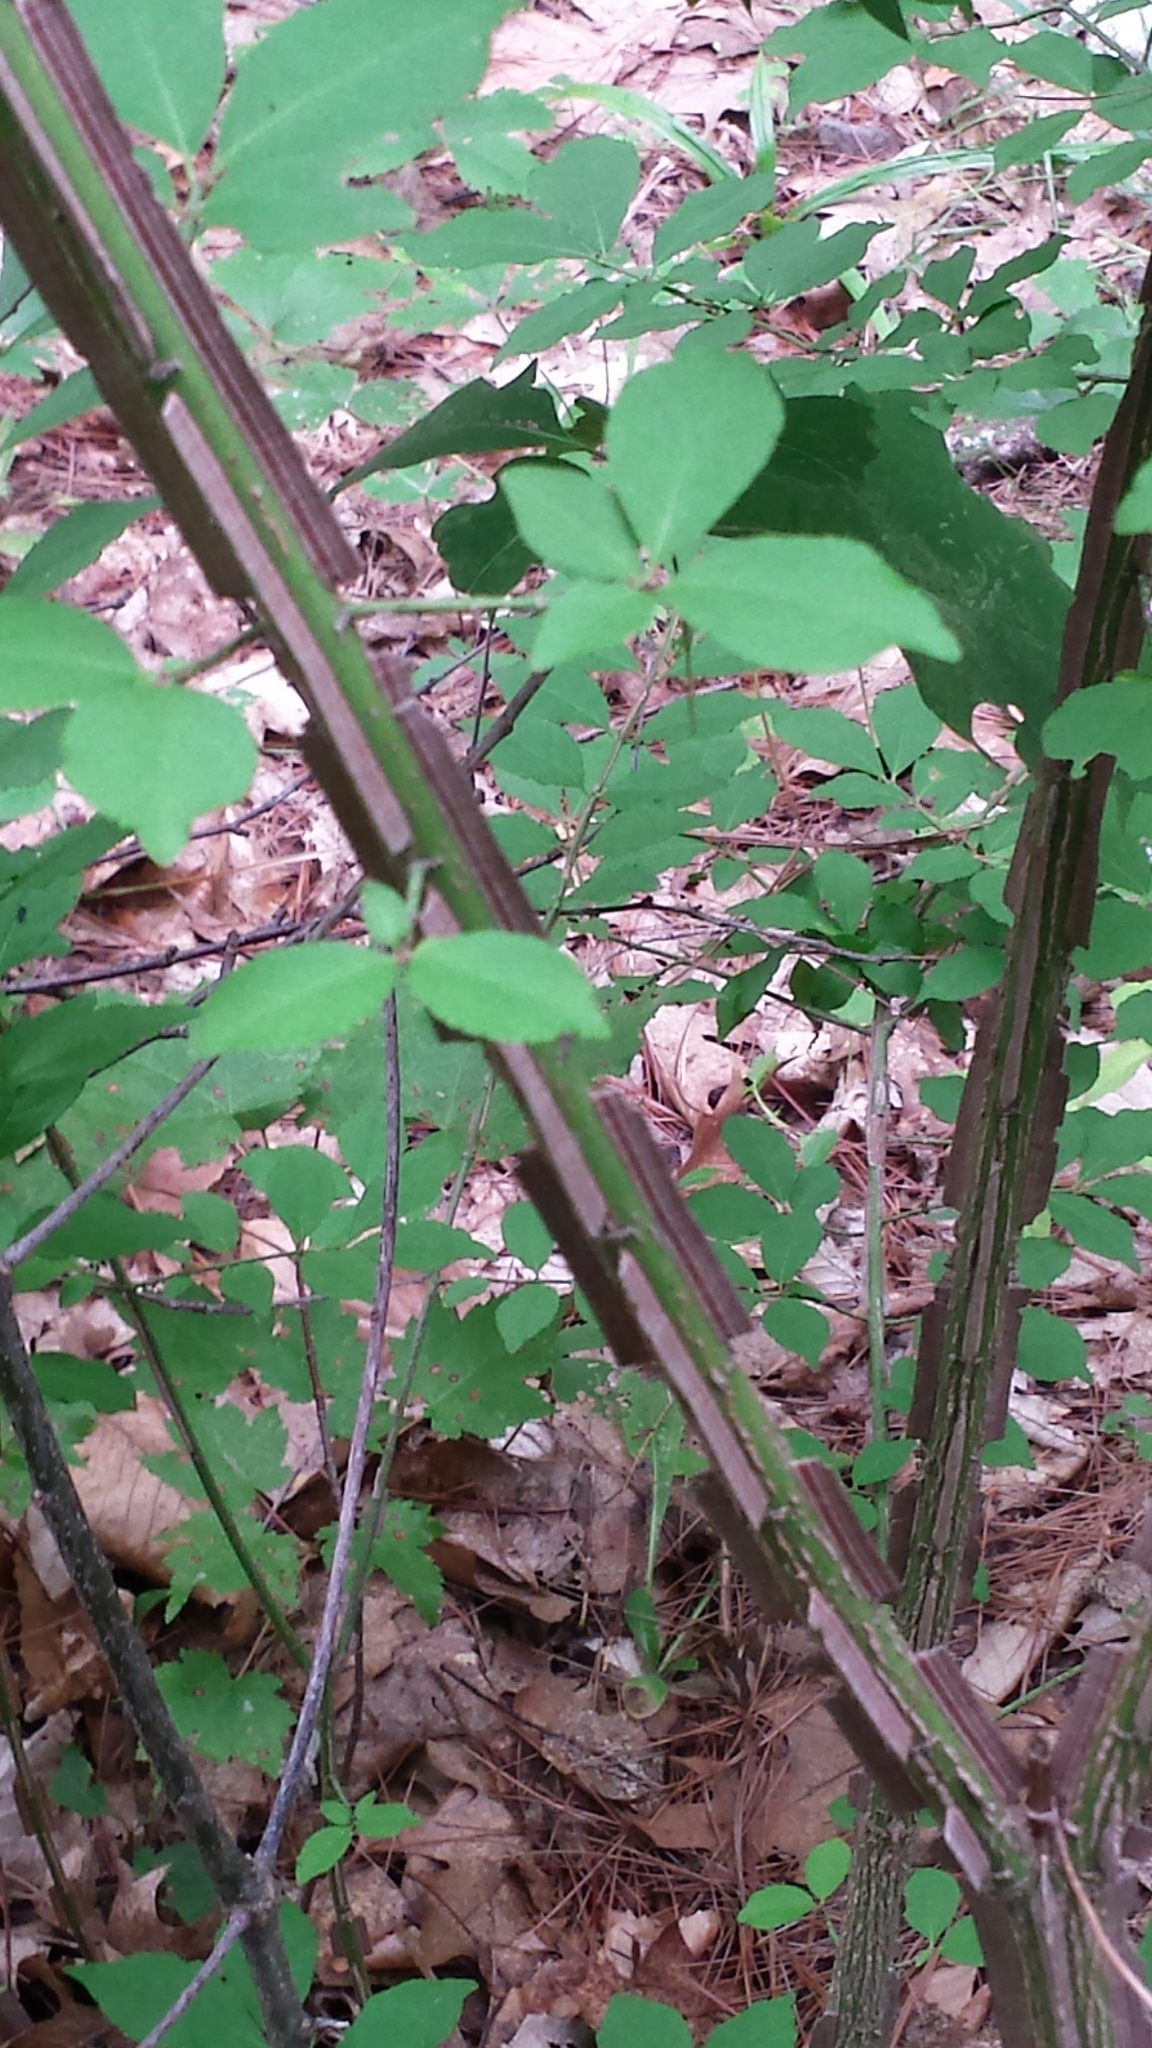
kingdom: Plantae
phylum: Tracheophyta
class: Magnoliopsida
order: Celastrales
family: Celastraceae
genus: Euonymus
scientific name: Euonymus alatus
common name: Winged euonymus
